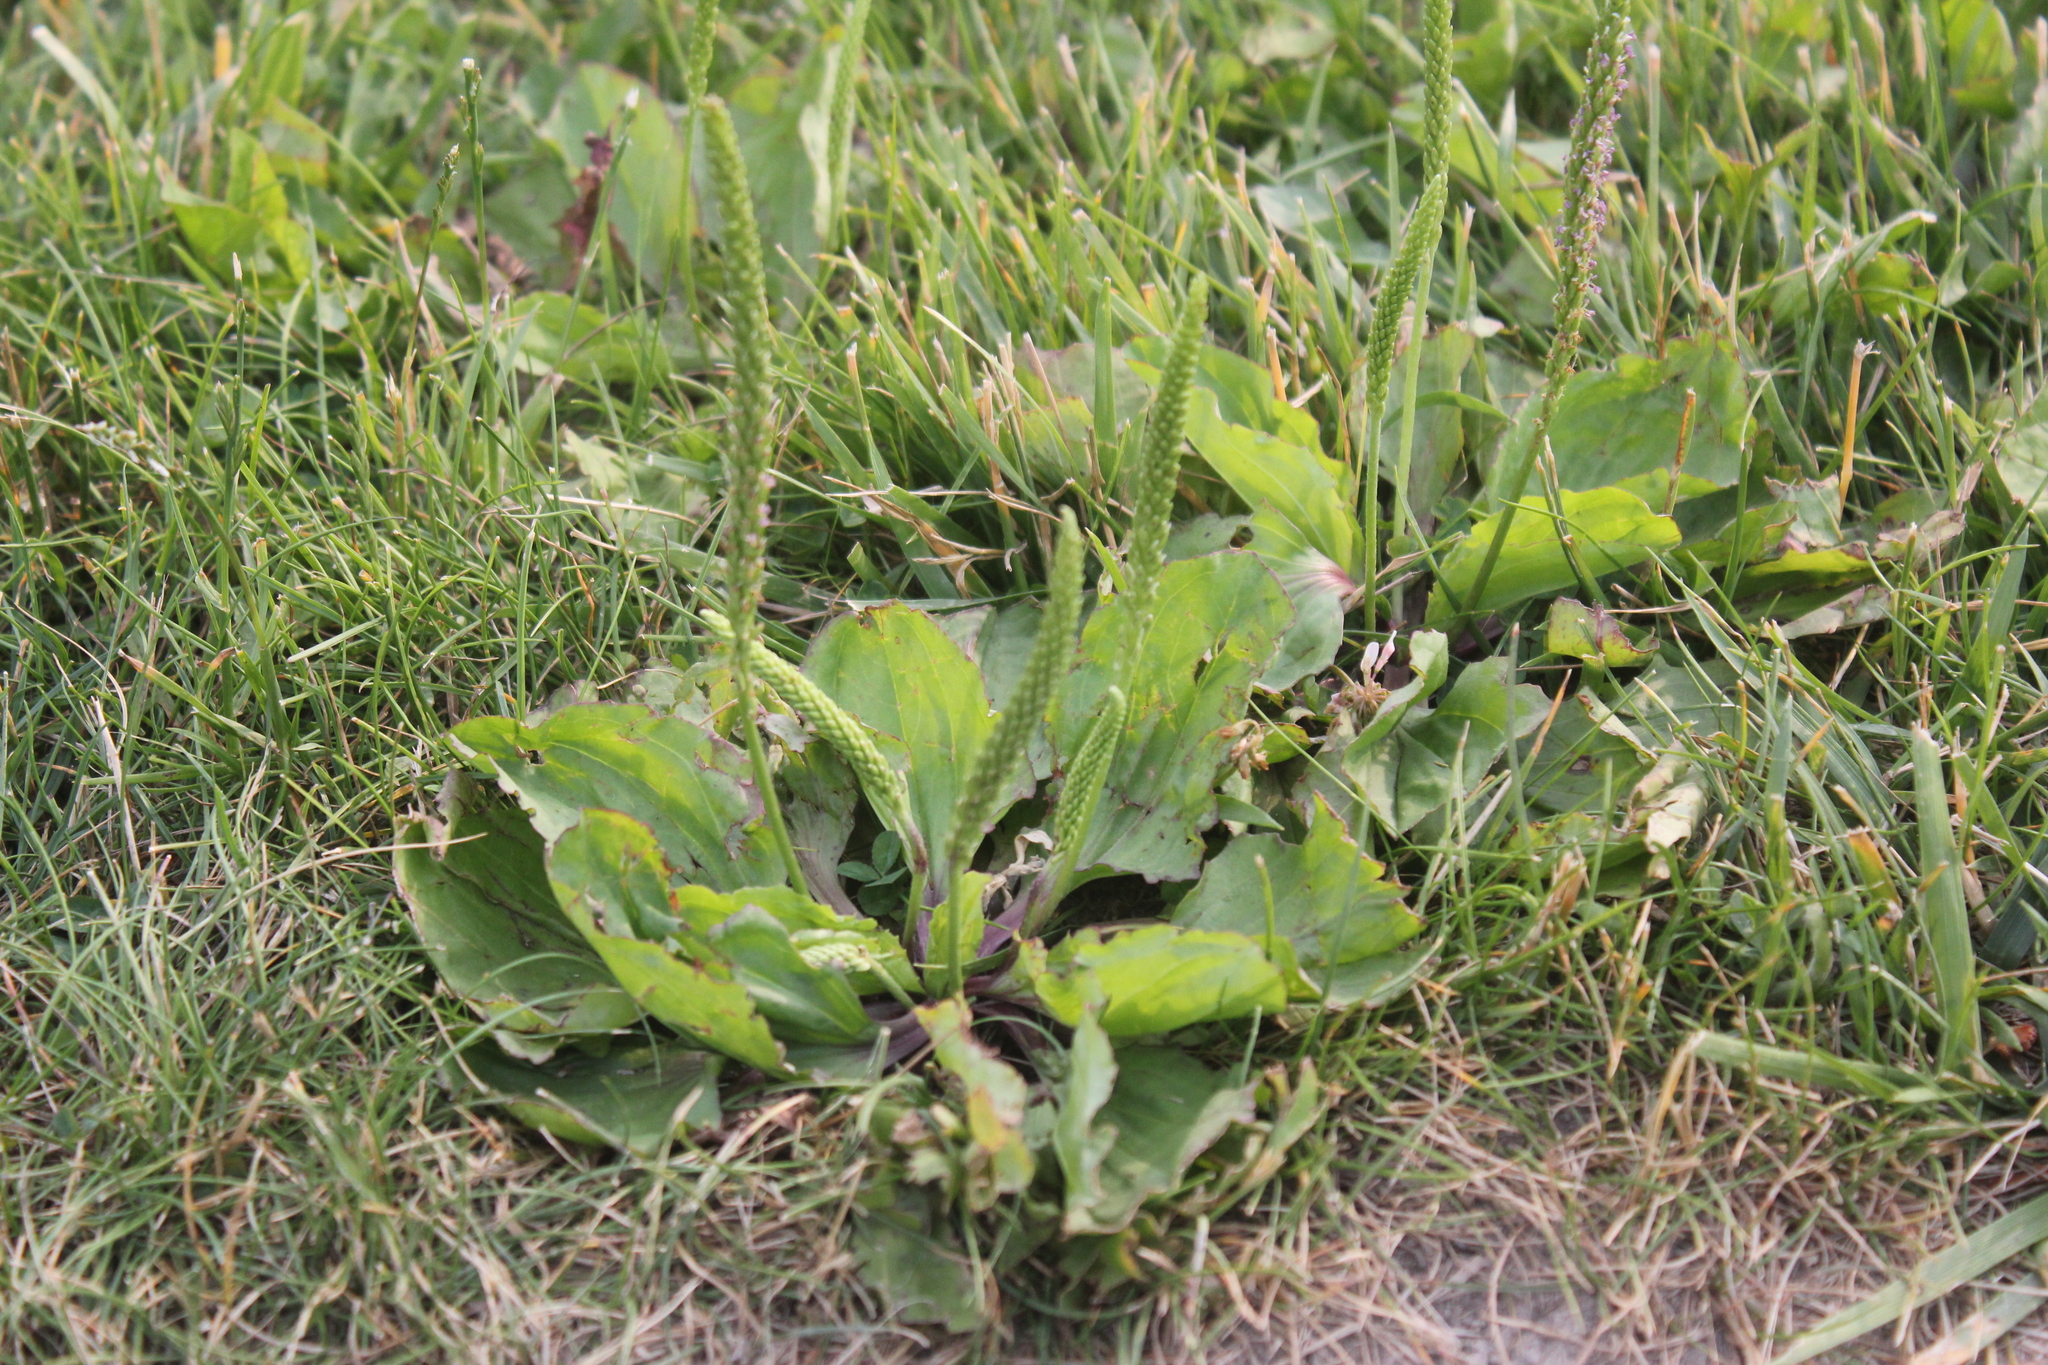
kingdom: Plantae
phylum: Tracheophyta
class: Magnoliopsida
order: Lamiales
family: Plantaginaceae
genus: Plantago
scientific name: Plantago rugelii
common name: American plantain
